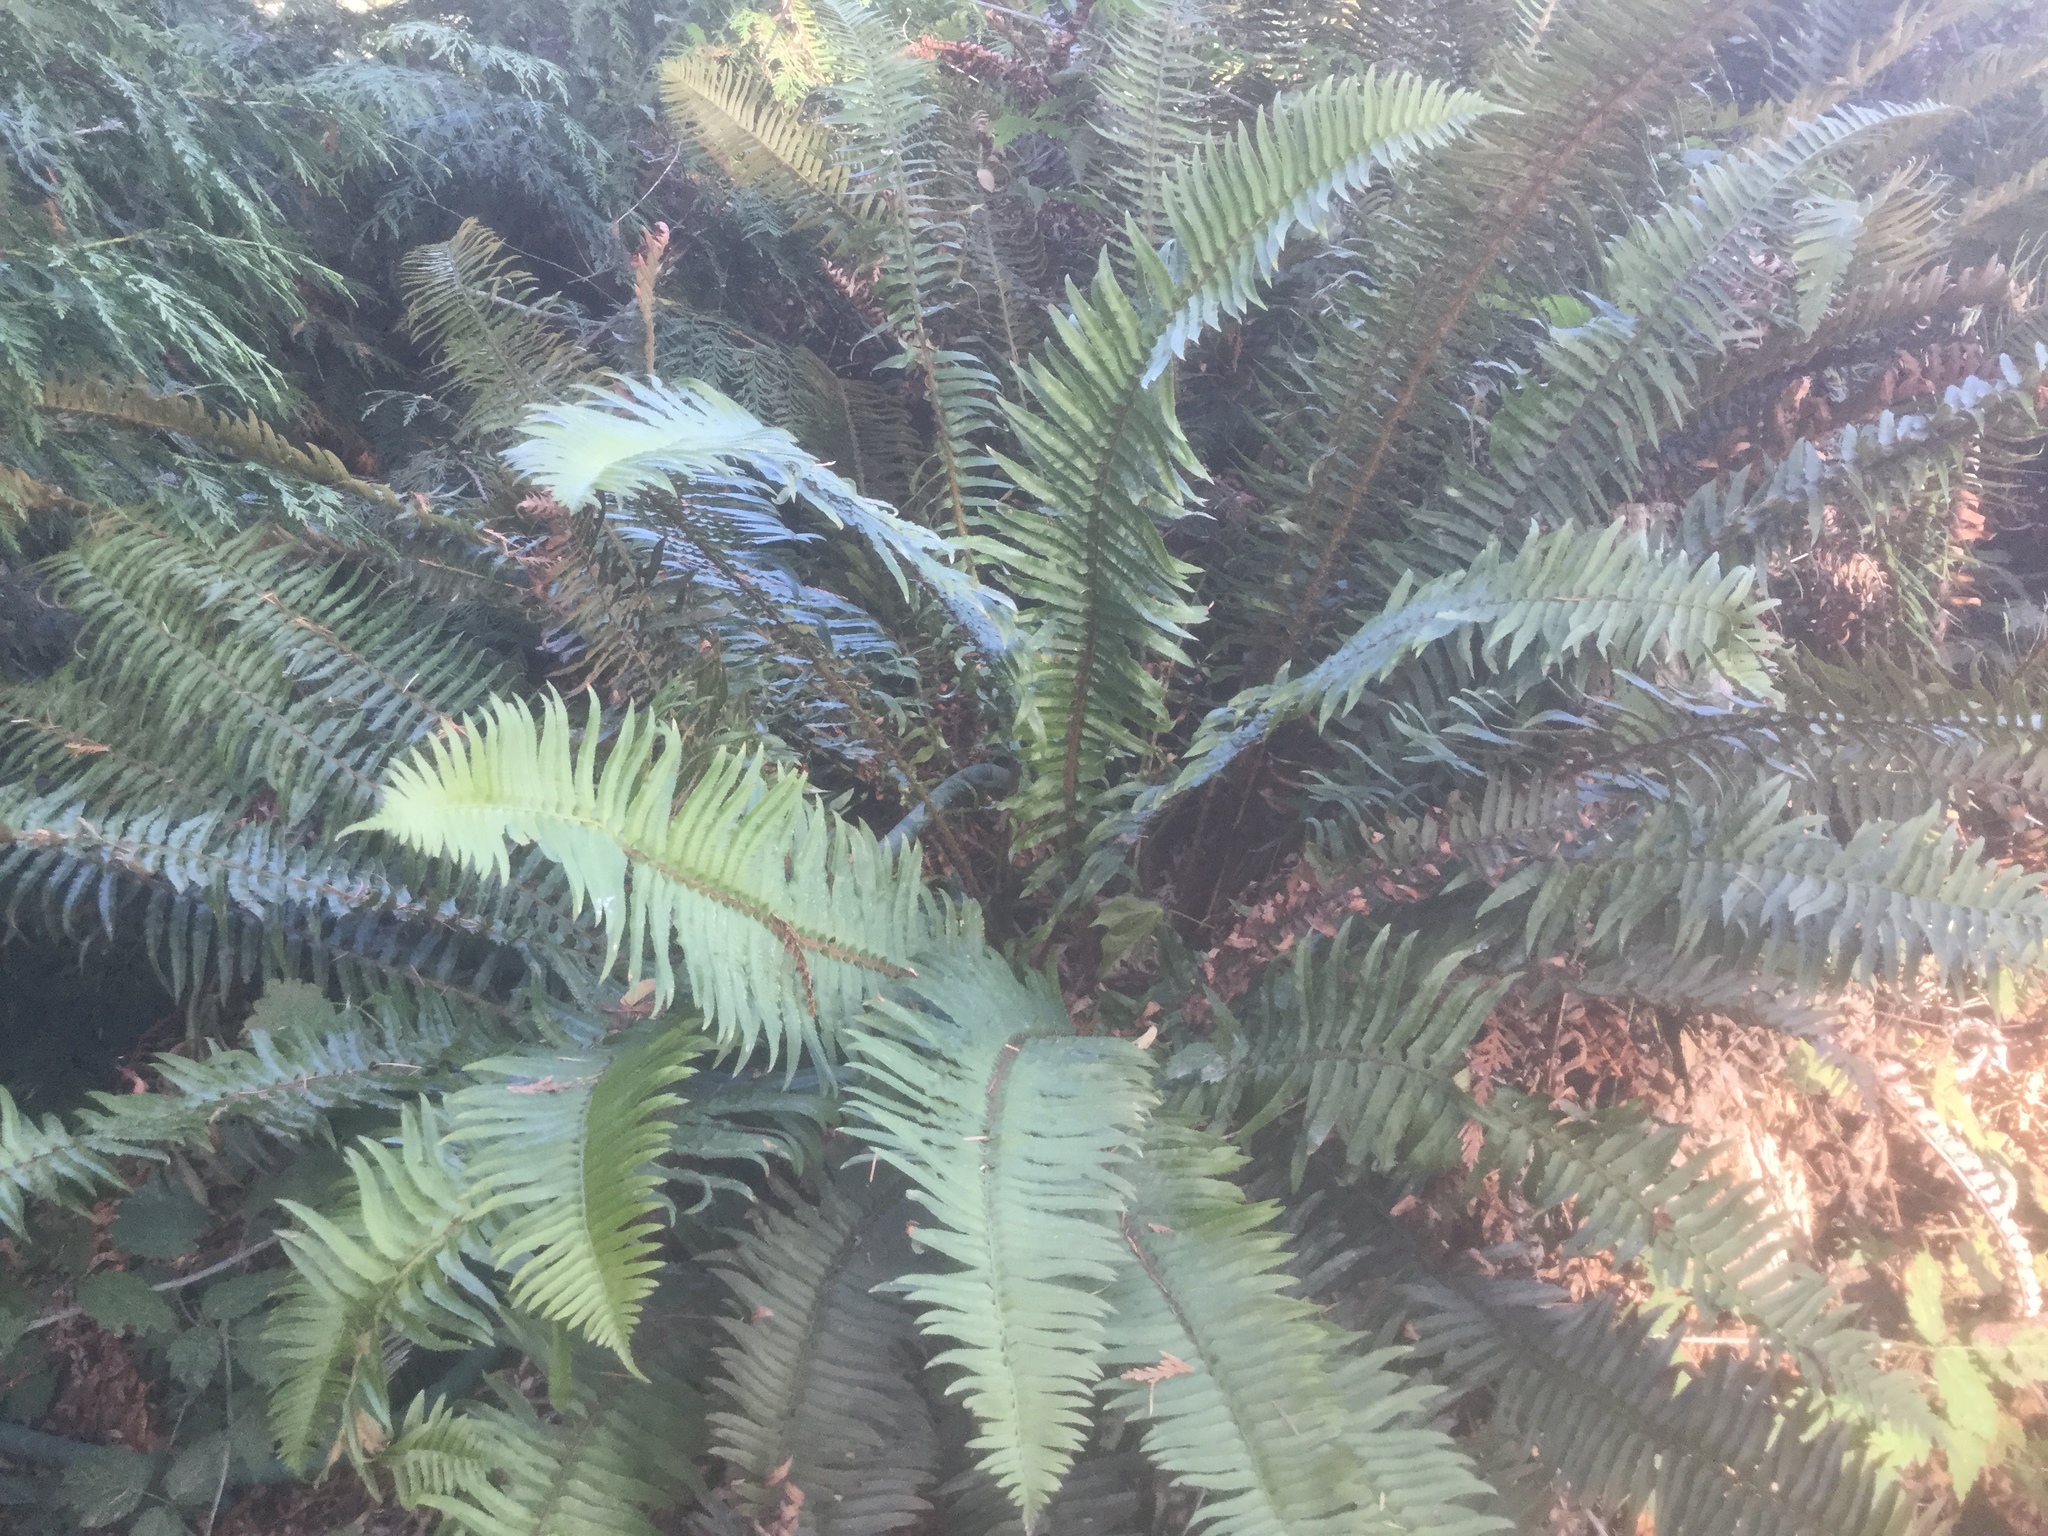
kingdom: Plantae
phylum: Tracheophyta
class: Polypodiopsida
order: Polypodiales
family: Dryopteridaceae
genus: Polystichum
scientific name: Polystichum munitum
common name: Western sword-fern
